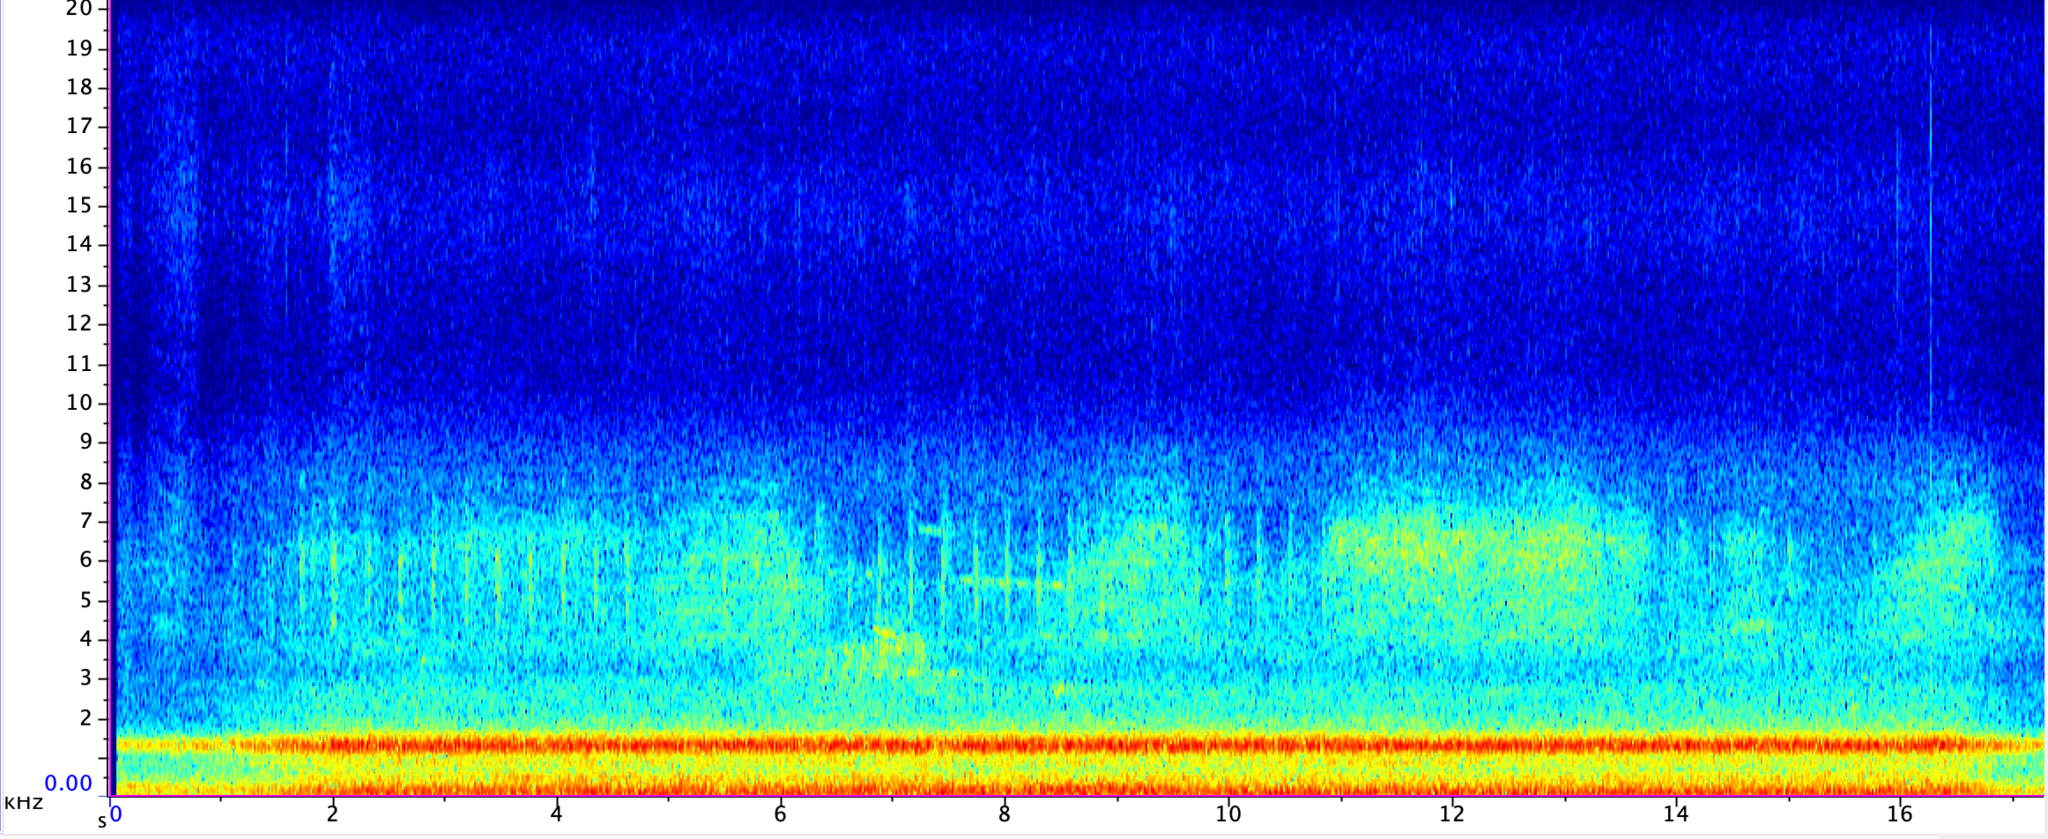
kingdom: Animalia
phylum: Arthropoda
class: Insecta
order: Hemiptera
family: Cicadidae
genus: Magicicada
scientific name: Magicicada septendecula
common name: Decula periodical cicada
